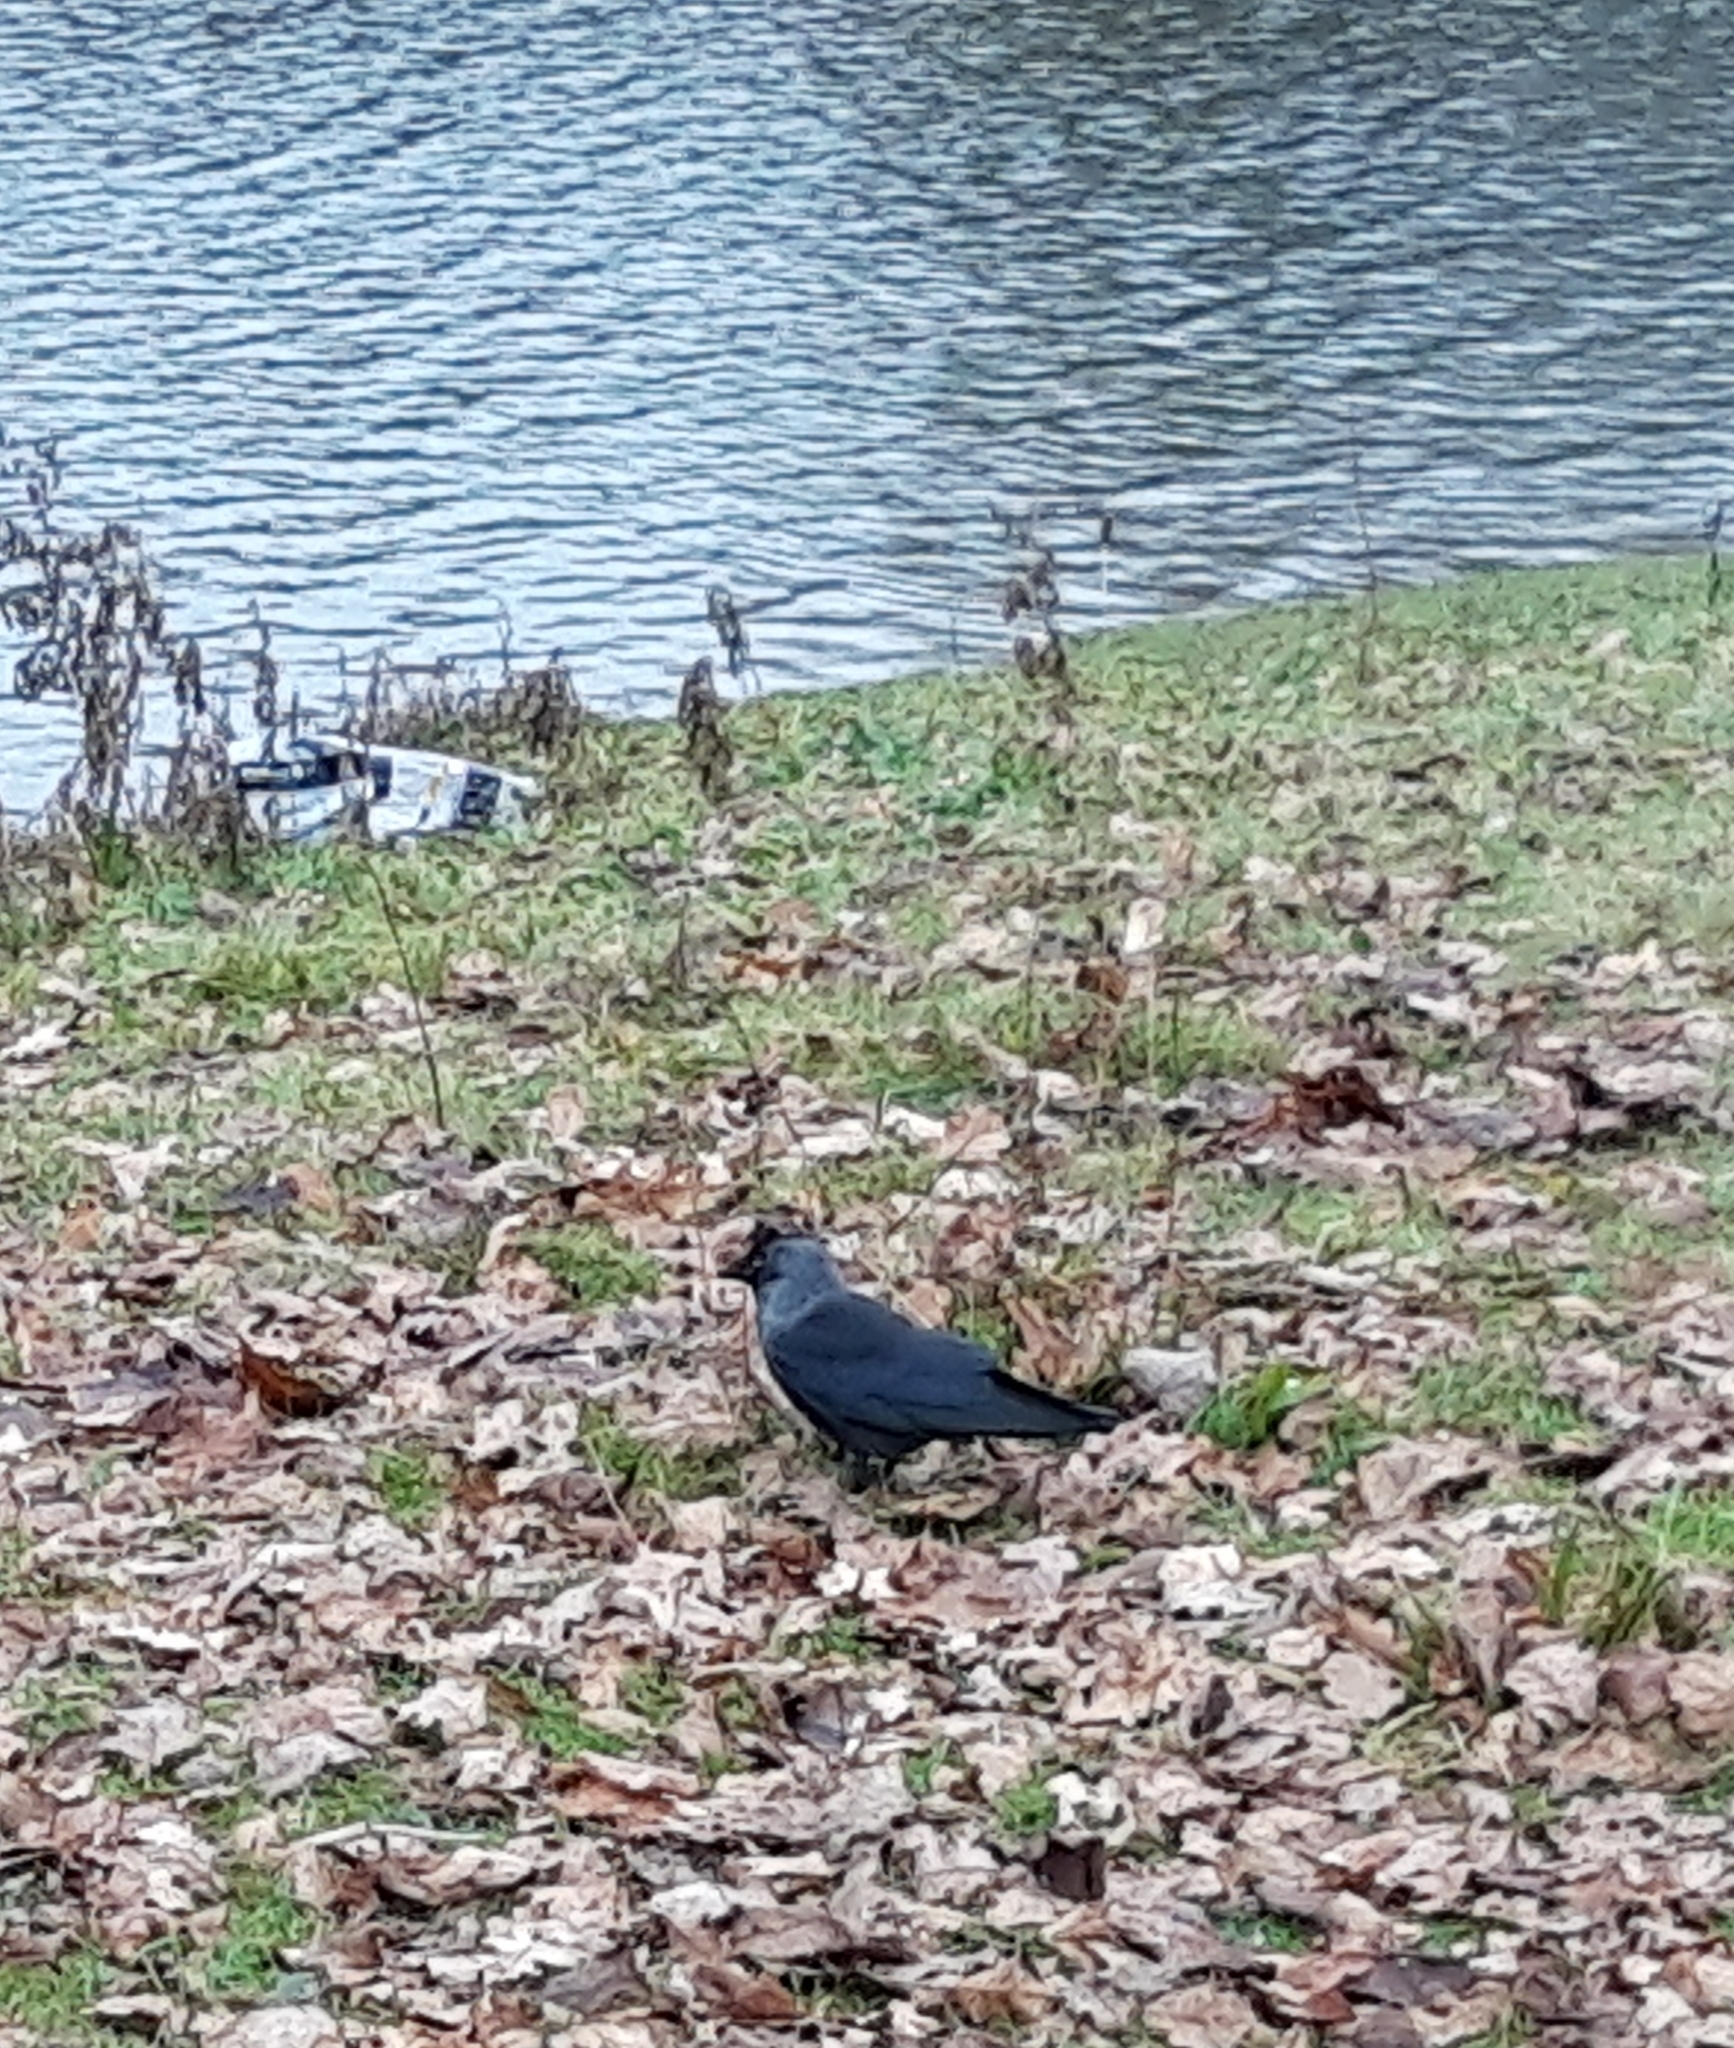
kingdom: Animalia
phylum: Chordata
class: Aves
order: Passeriformes
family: Corvidae
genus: Coloeus
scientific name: Coloeus monedula
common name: Western jackdaw
